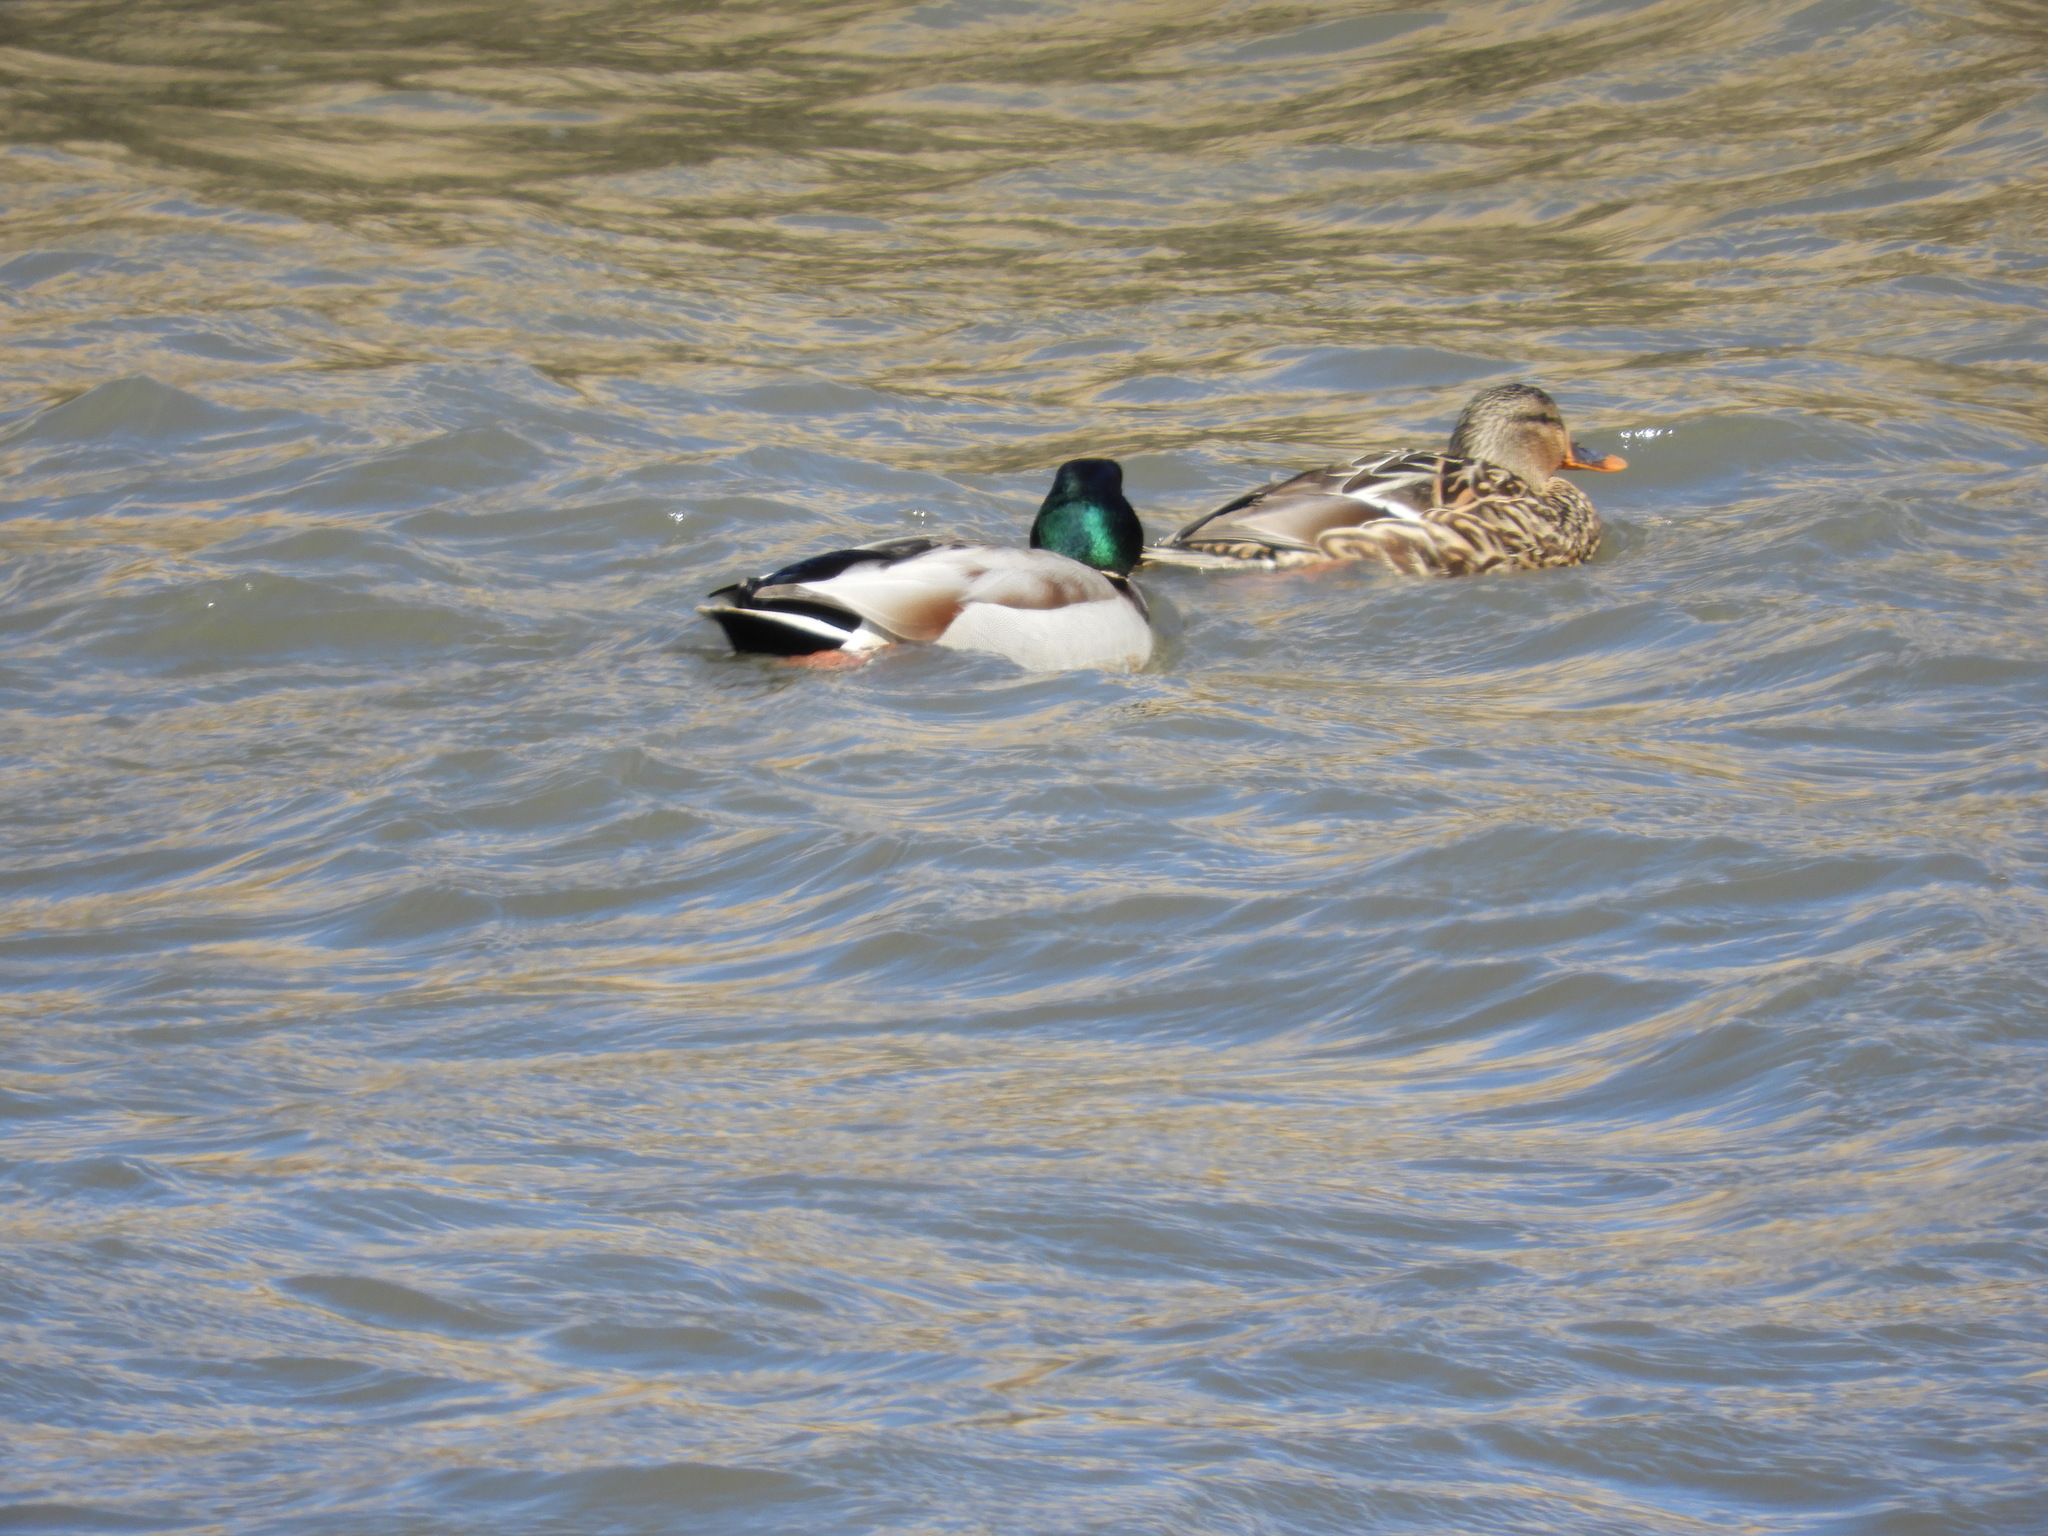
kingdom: Animalia
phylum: Chordata
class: Aves
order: Anseriformes
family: Anatidae
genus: Anas
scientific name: Anas platyrhynchos
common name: Mallard
